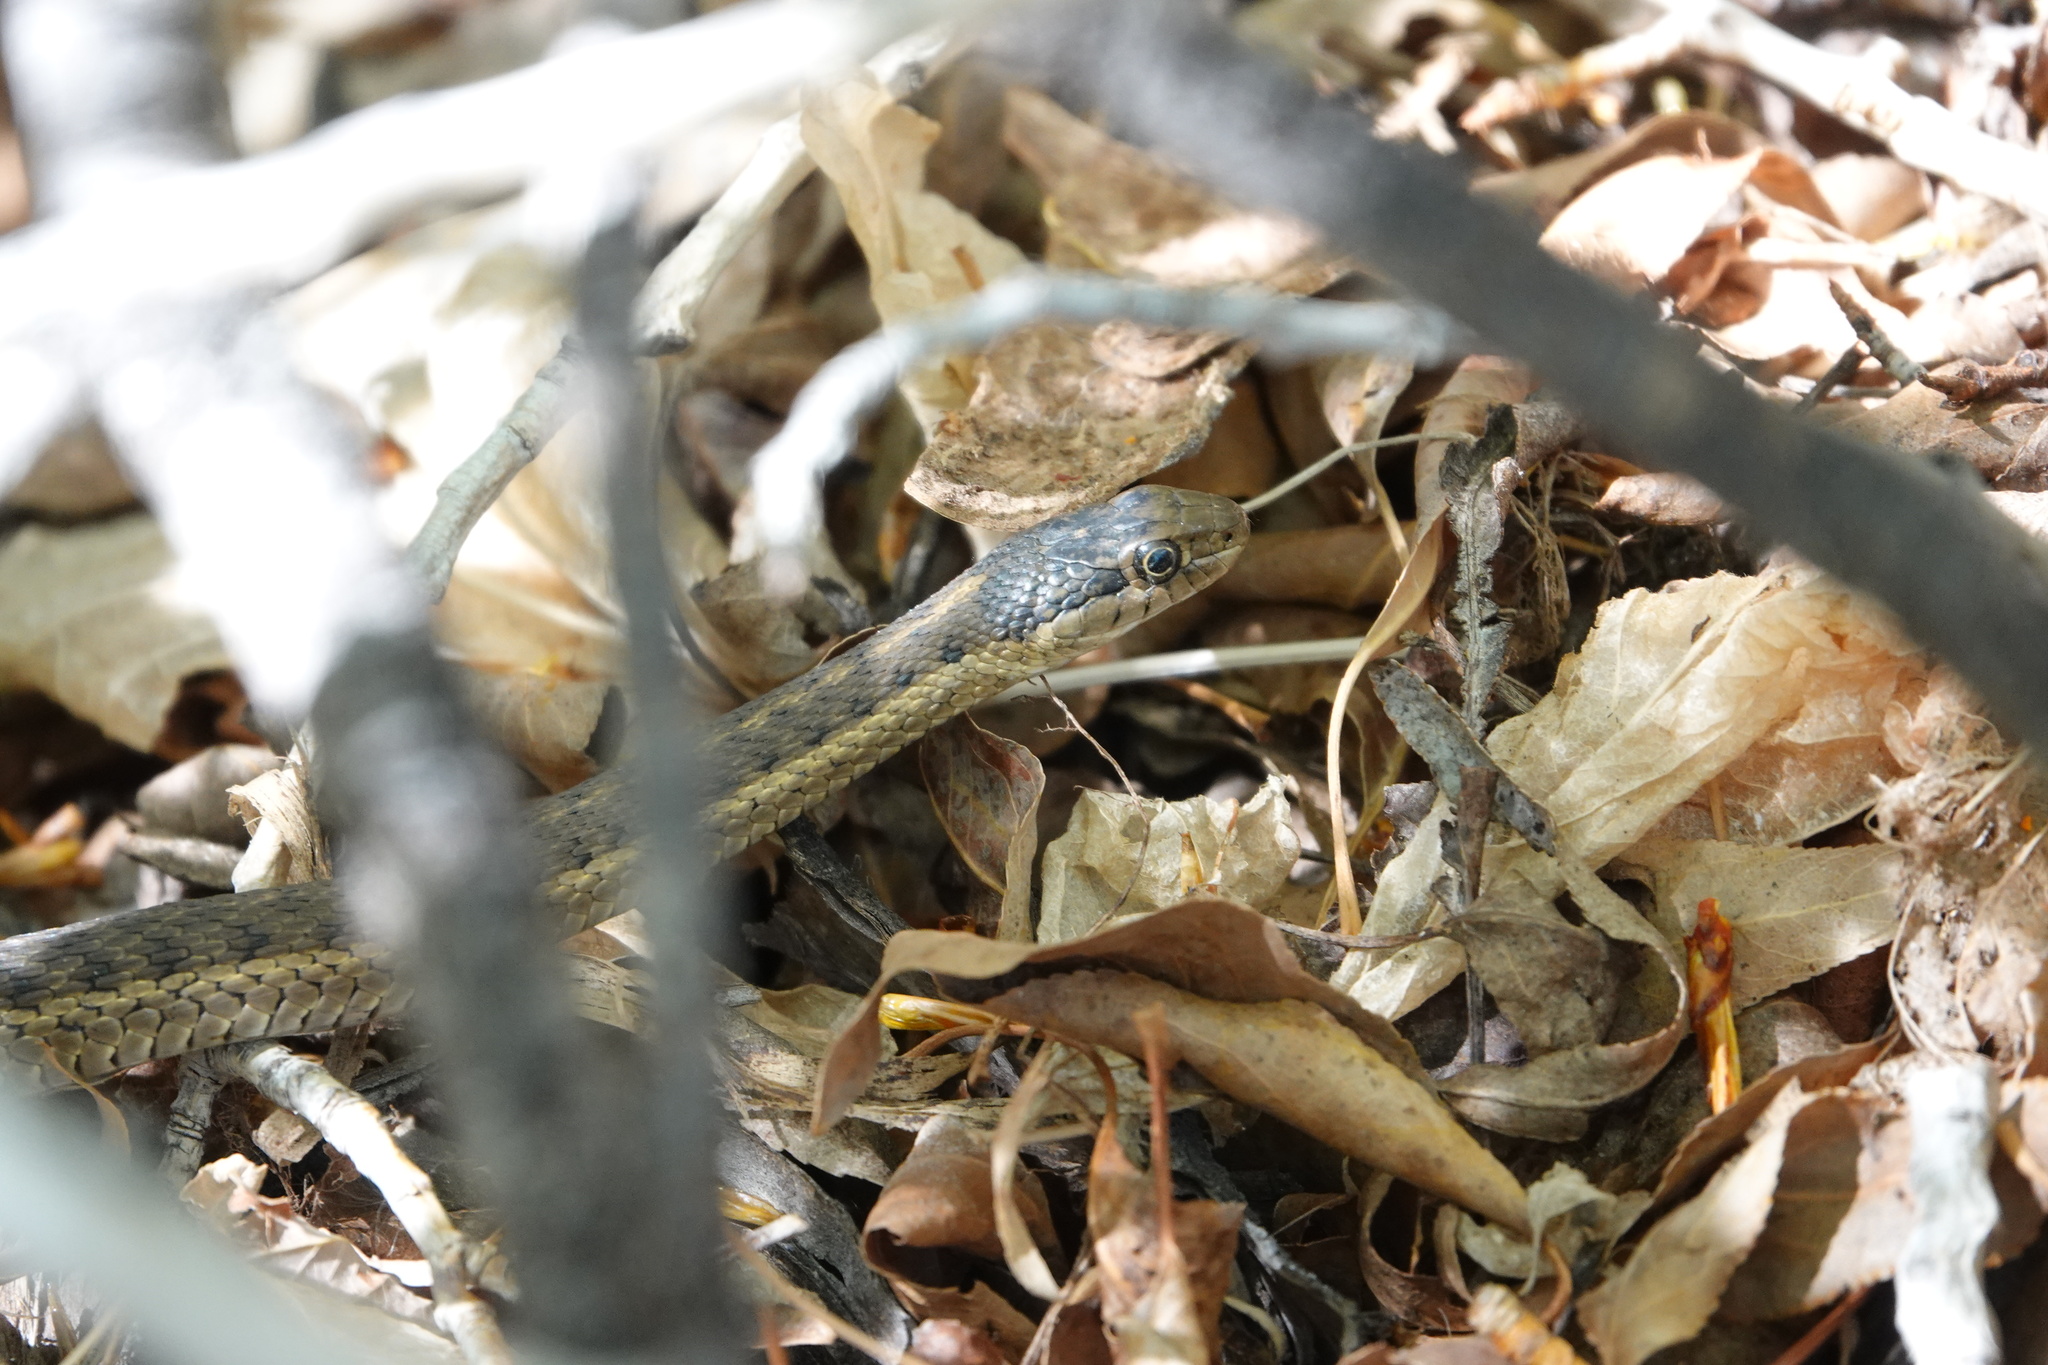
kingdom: Animalia
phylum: Chordata
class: Squamata
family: Colubridae
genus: Thamnophis
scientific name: Thamnophis elegans
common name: Western terrestrial garter snake
